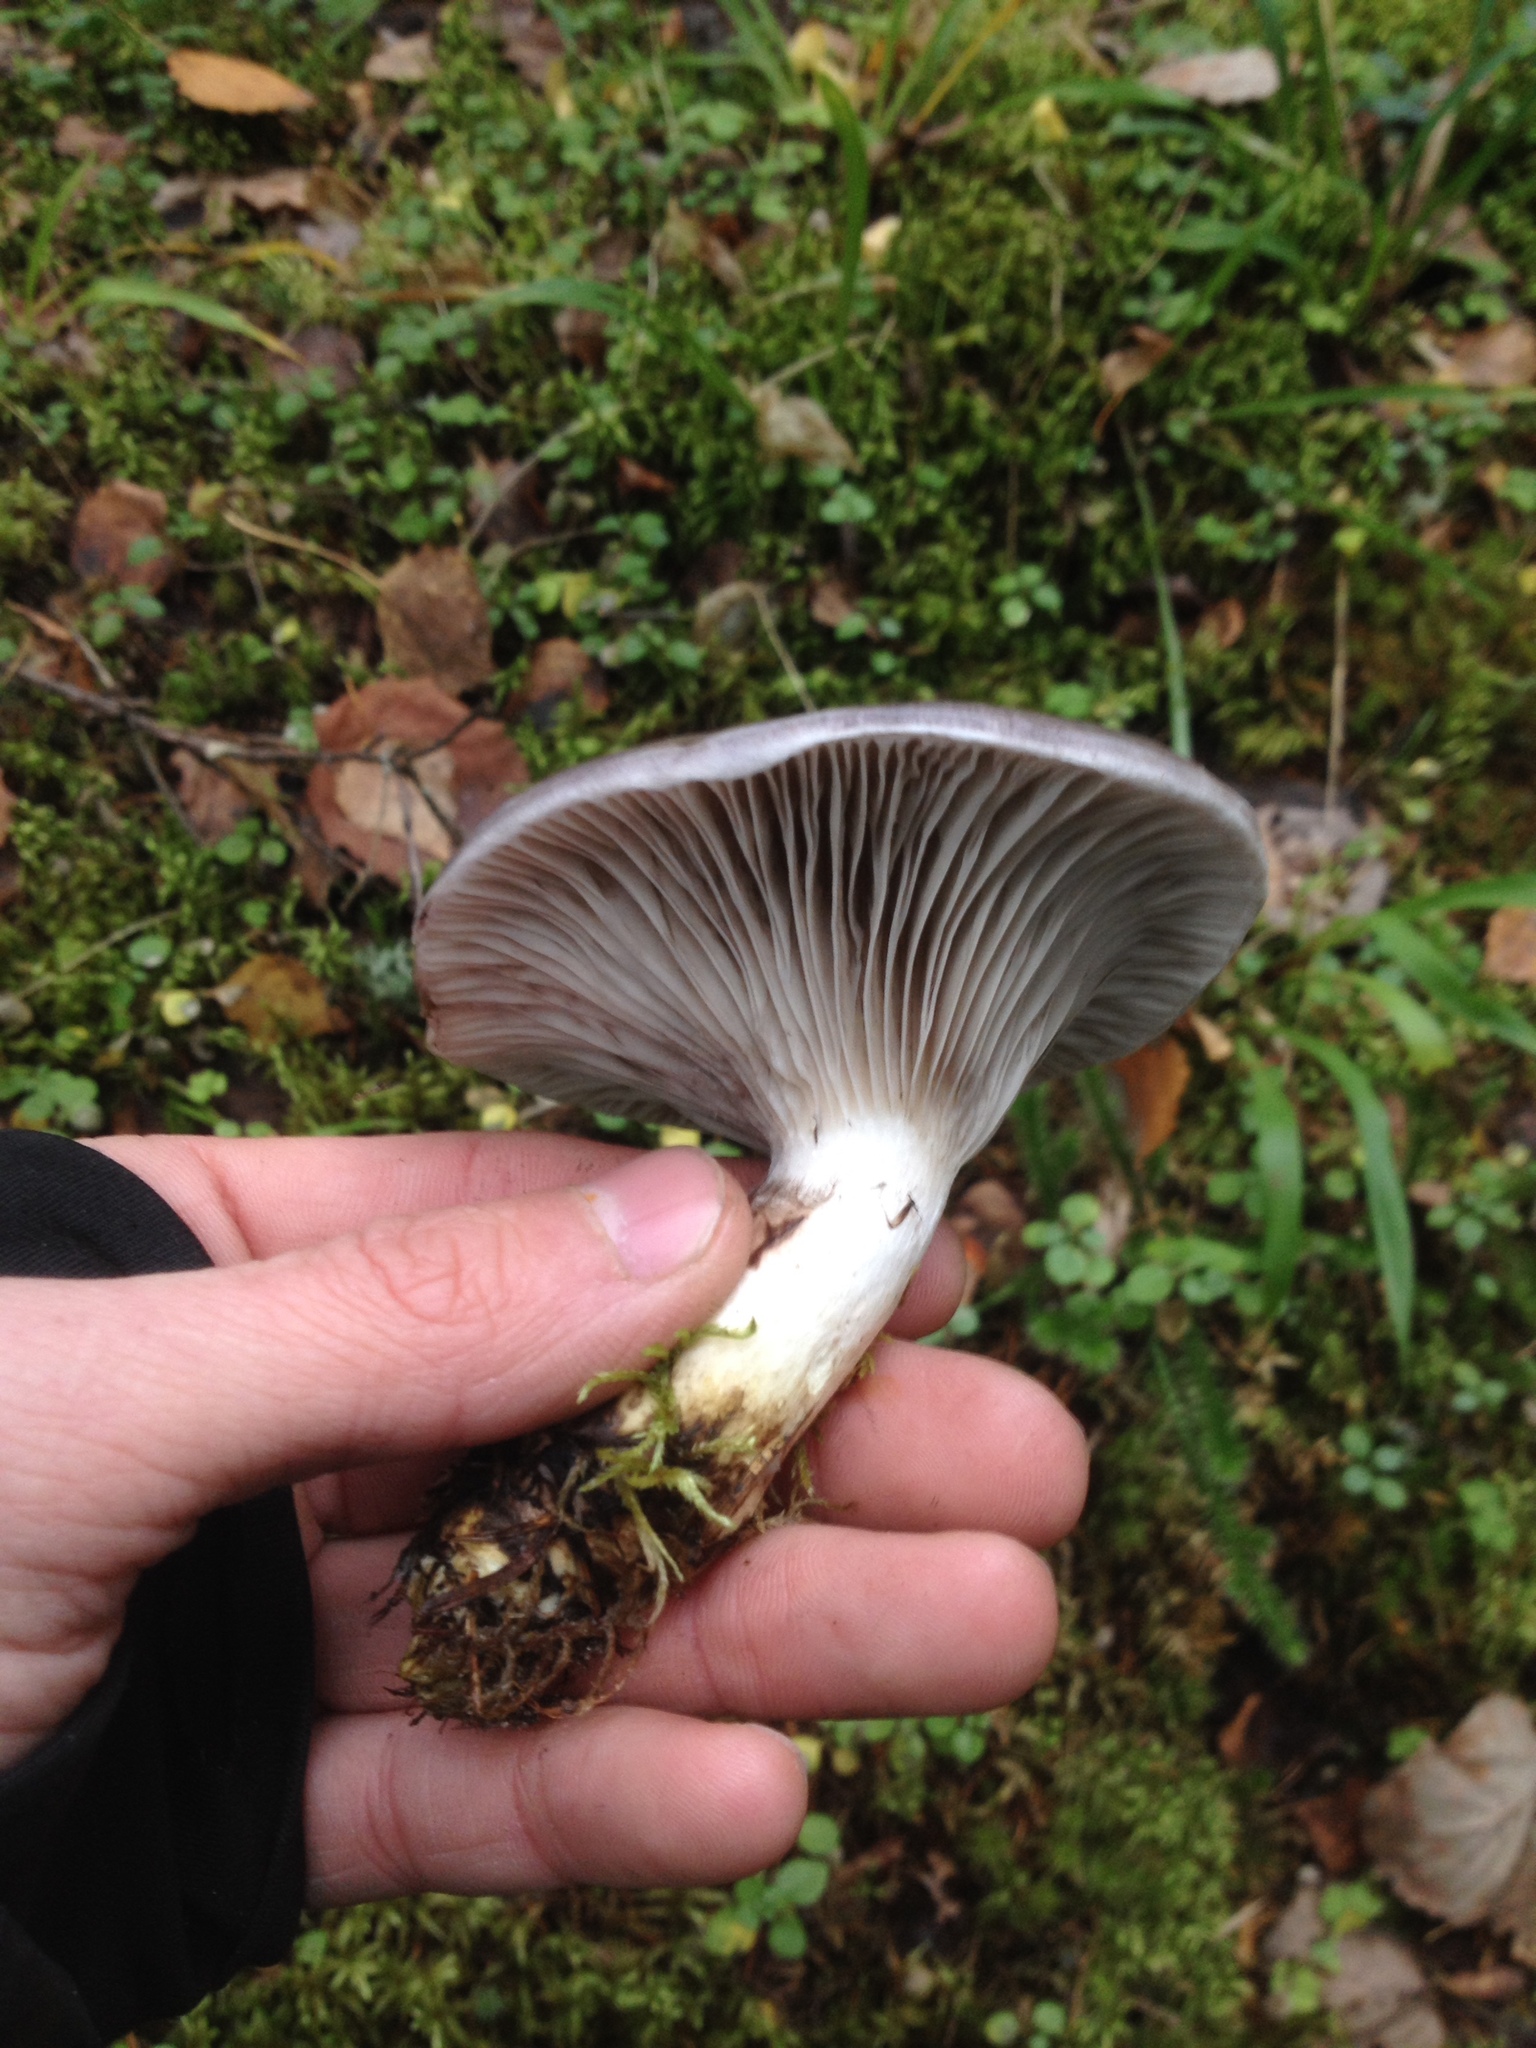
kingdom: Fungi
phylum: Basidiomycota
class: Agaricomycetes
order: Boletales
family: Gomphidiaceae
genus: Gomphidius
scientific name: Gomphidius glutinosus
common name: Slimy spike
